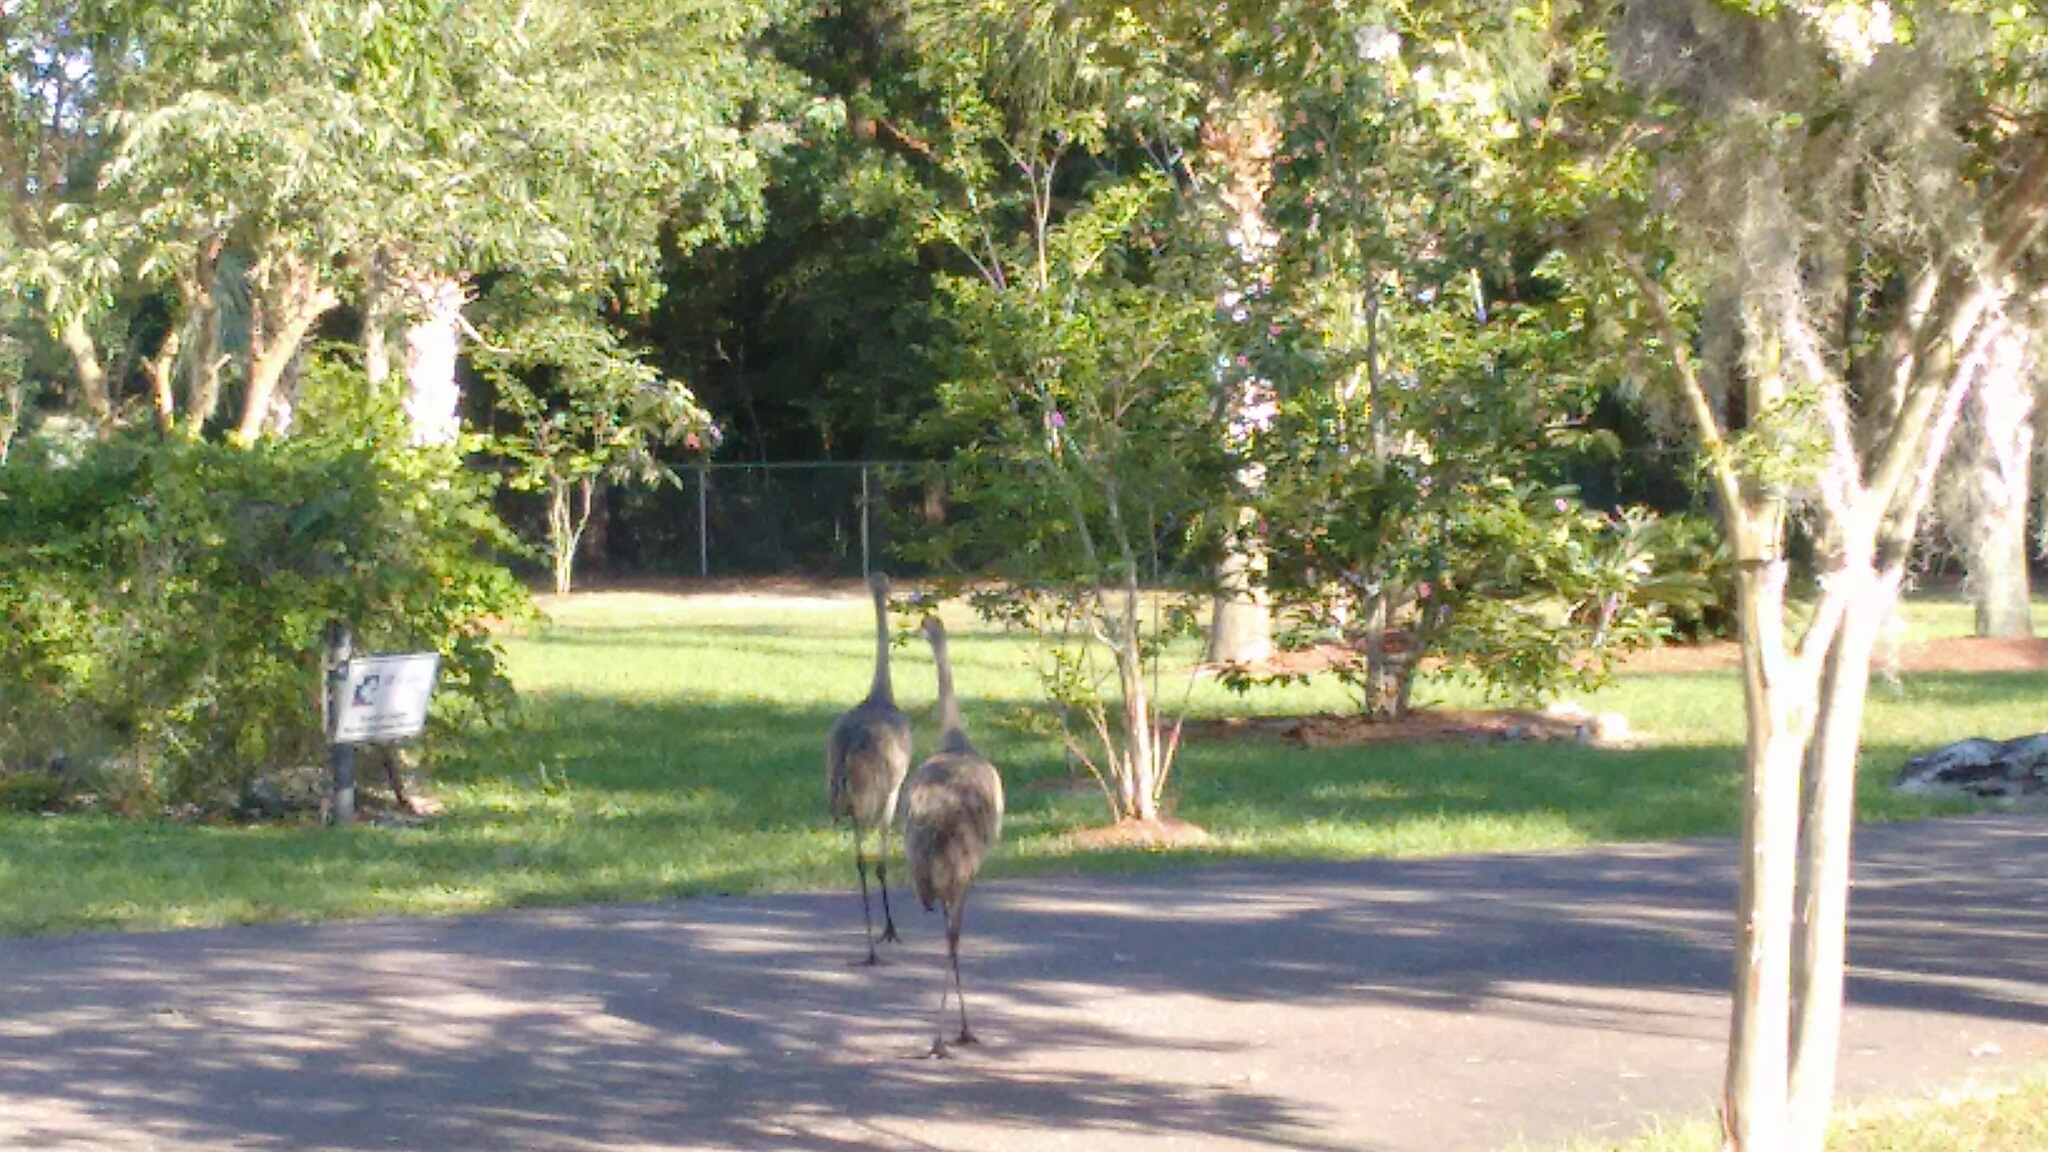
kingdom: Animalia
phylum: Chordata
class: Aves
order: Gruiformes
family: Gruidae
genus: Grus
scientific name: Grus canadensis
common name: Sandhill crane
